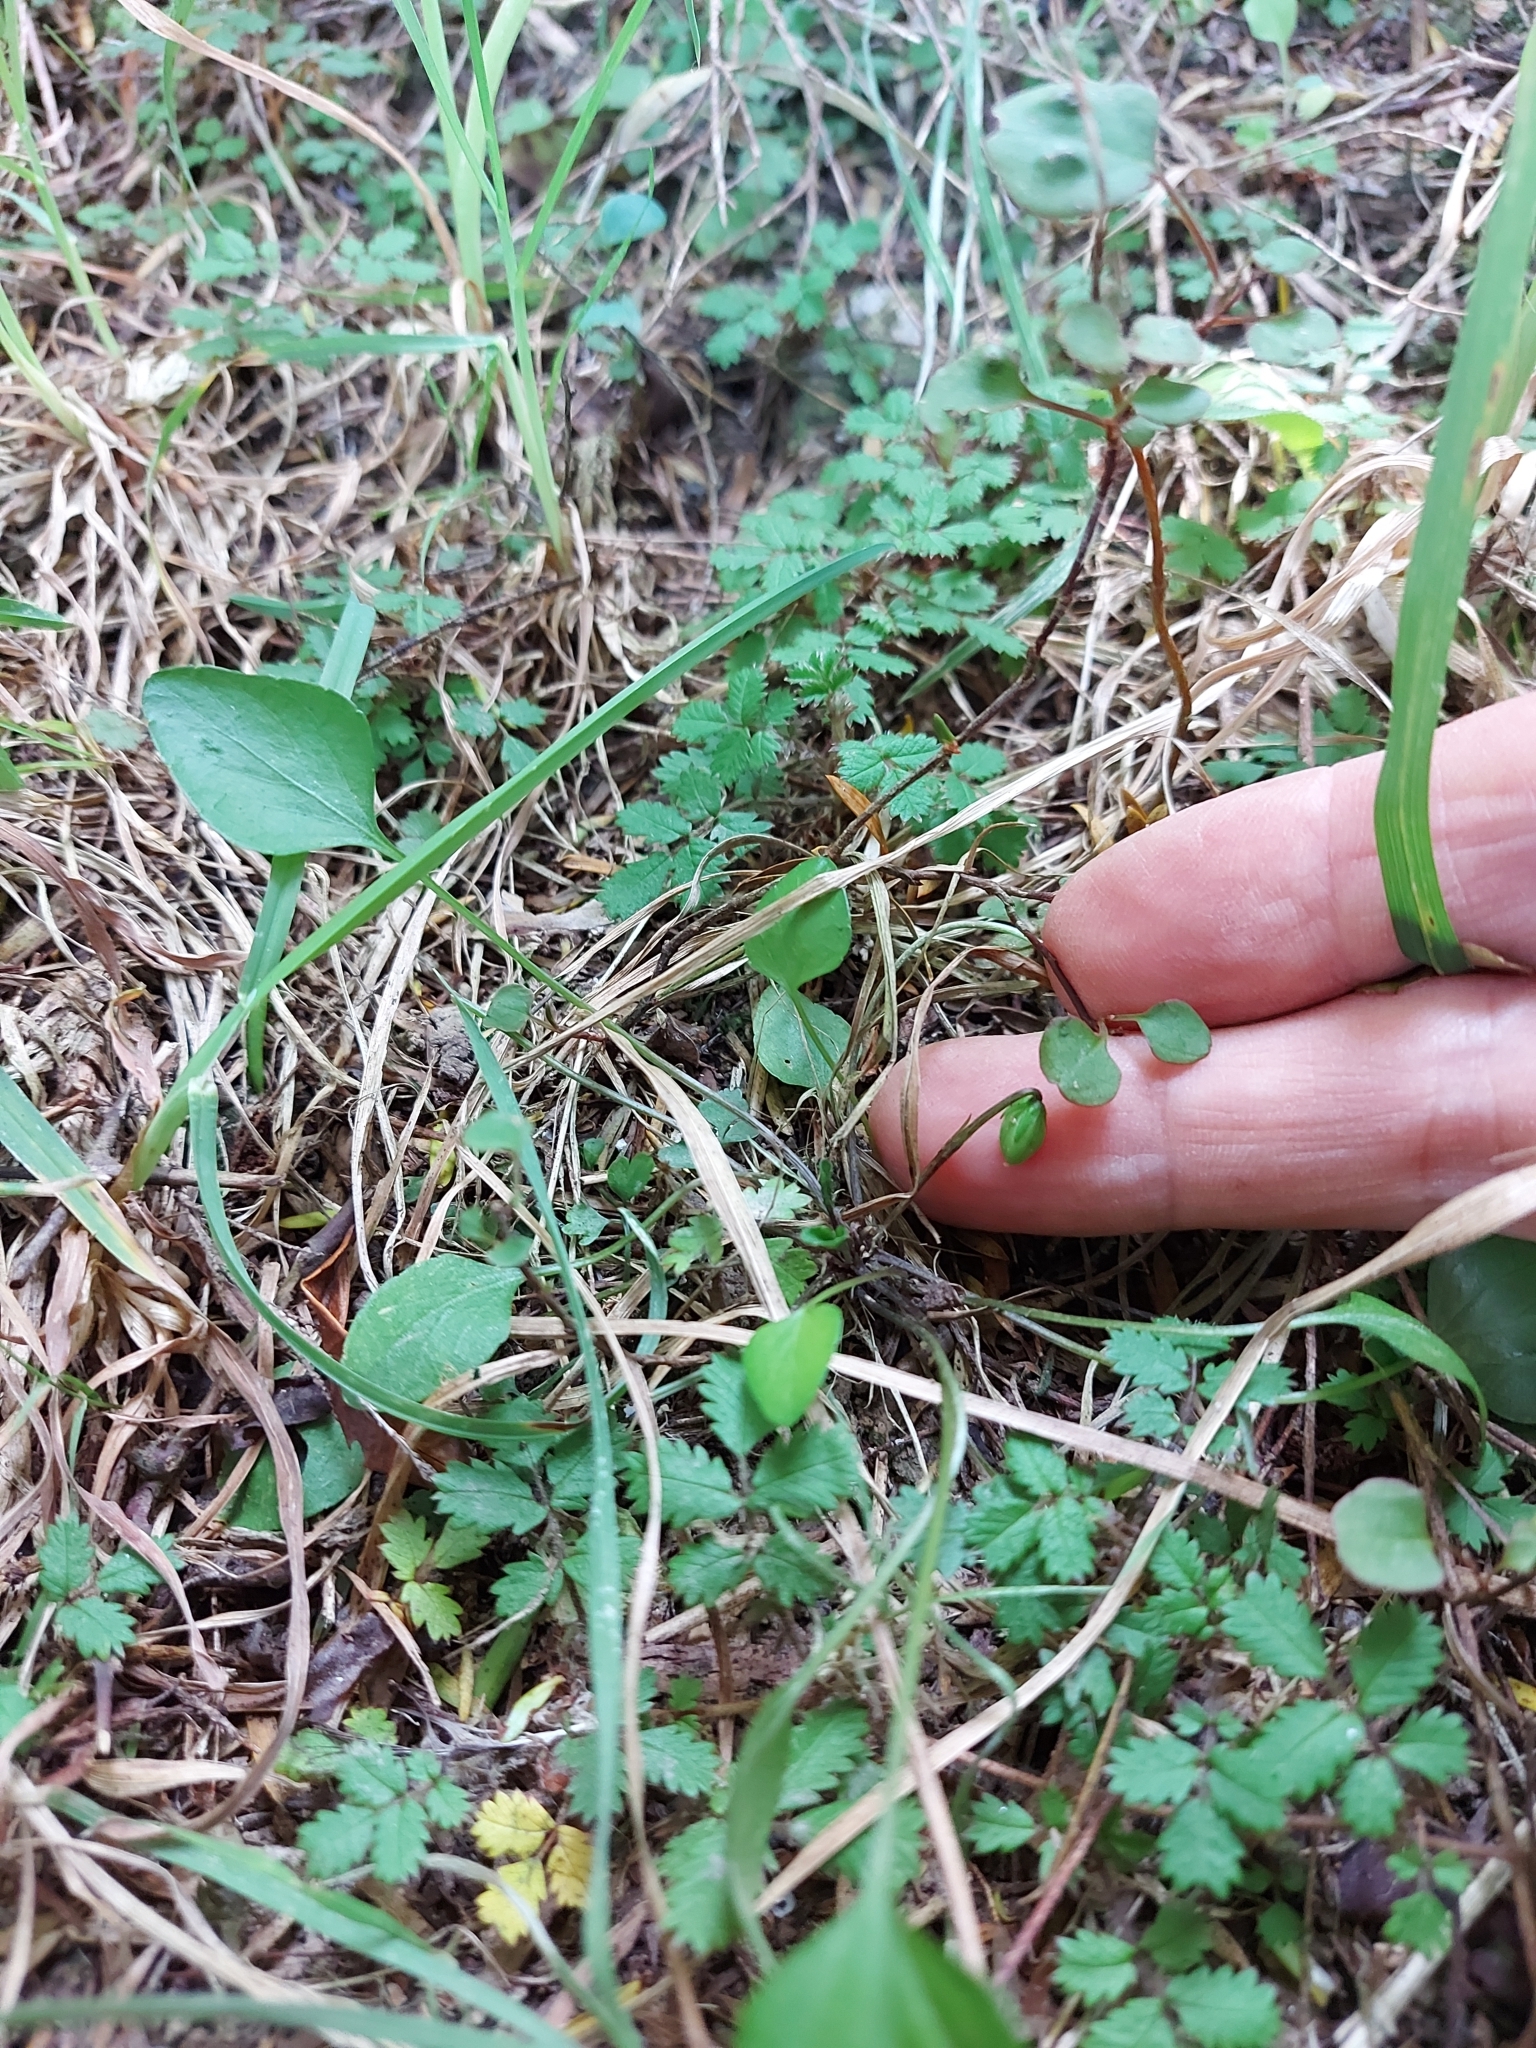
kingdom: Plantae
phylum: Tracheophyta
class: Magnoliopsida
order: Malpighiales
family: Violaceae
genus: Viola
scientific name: Viola cunninghamii
